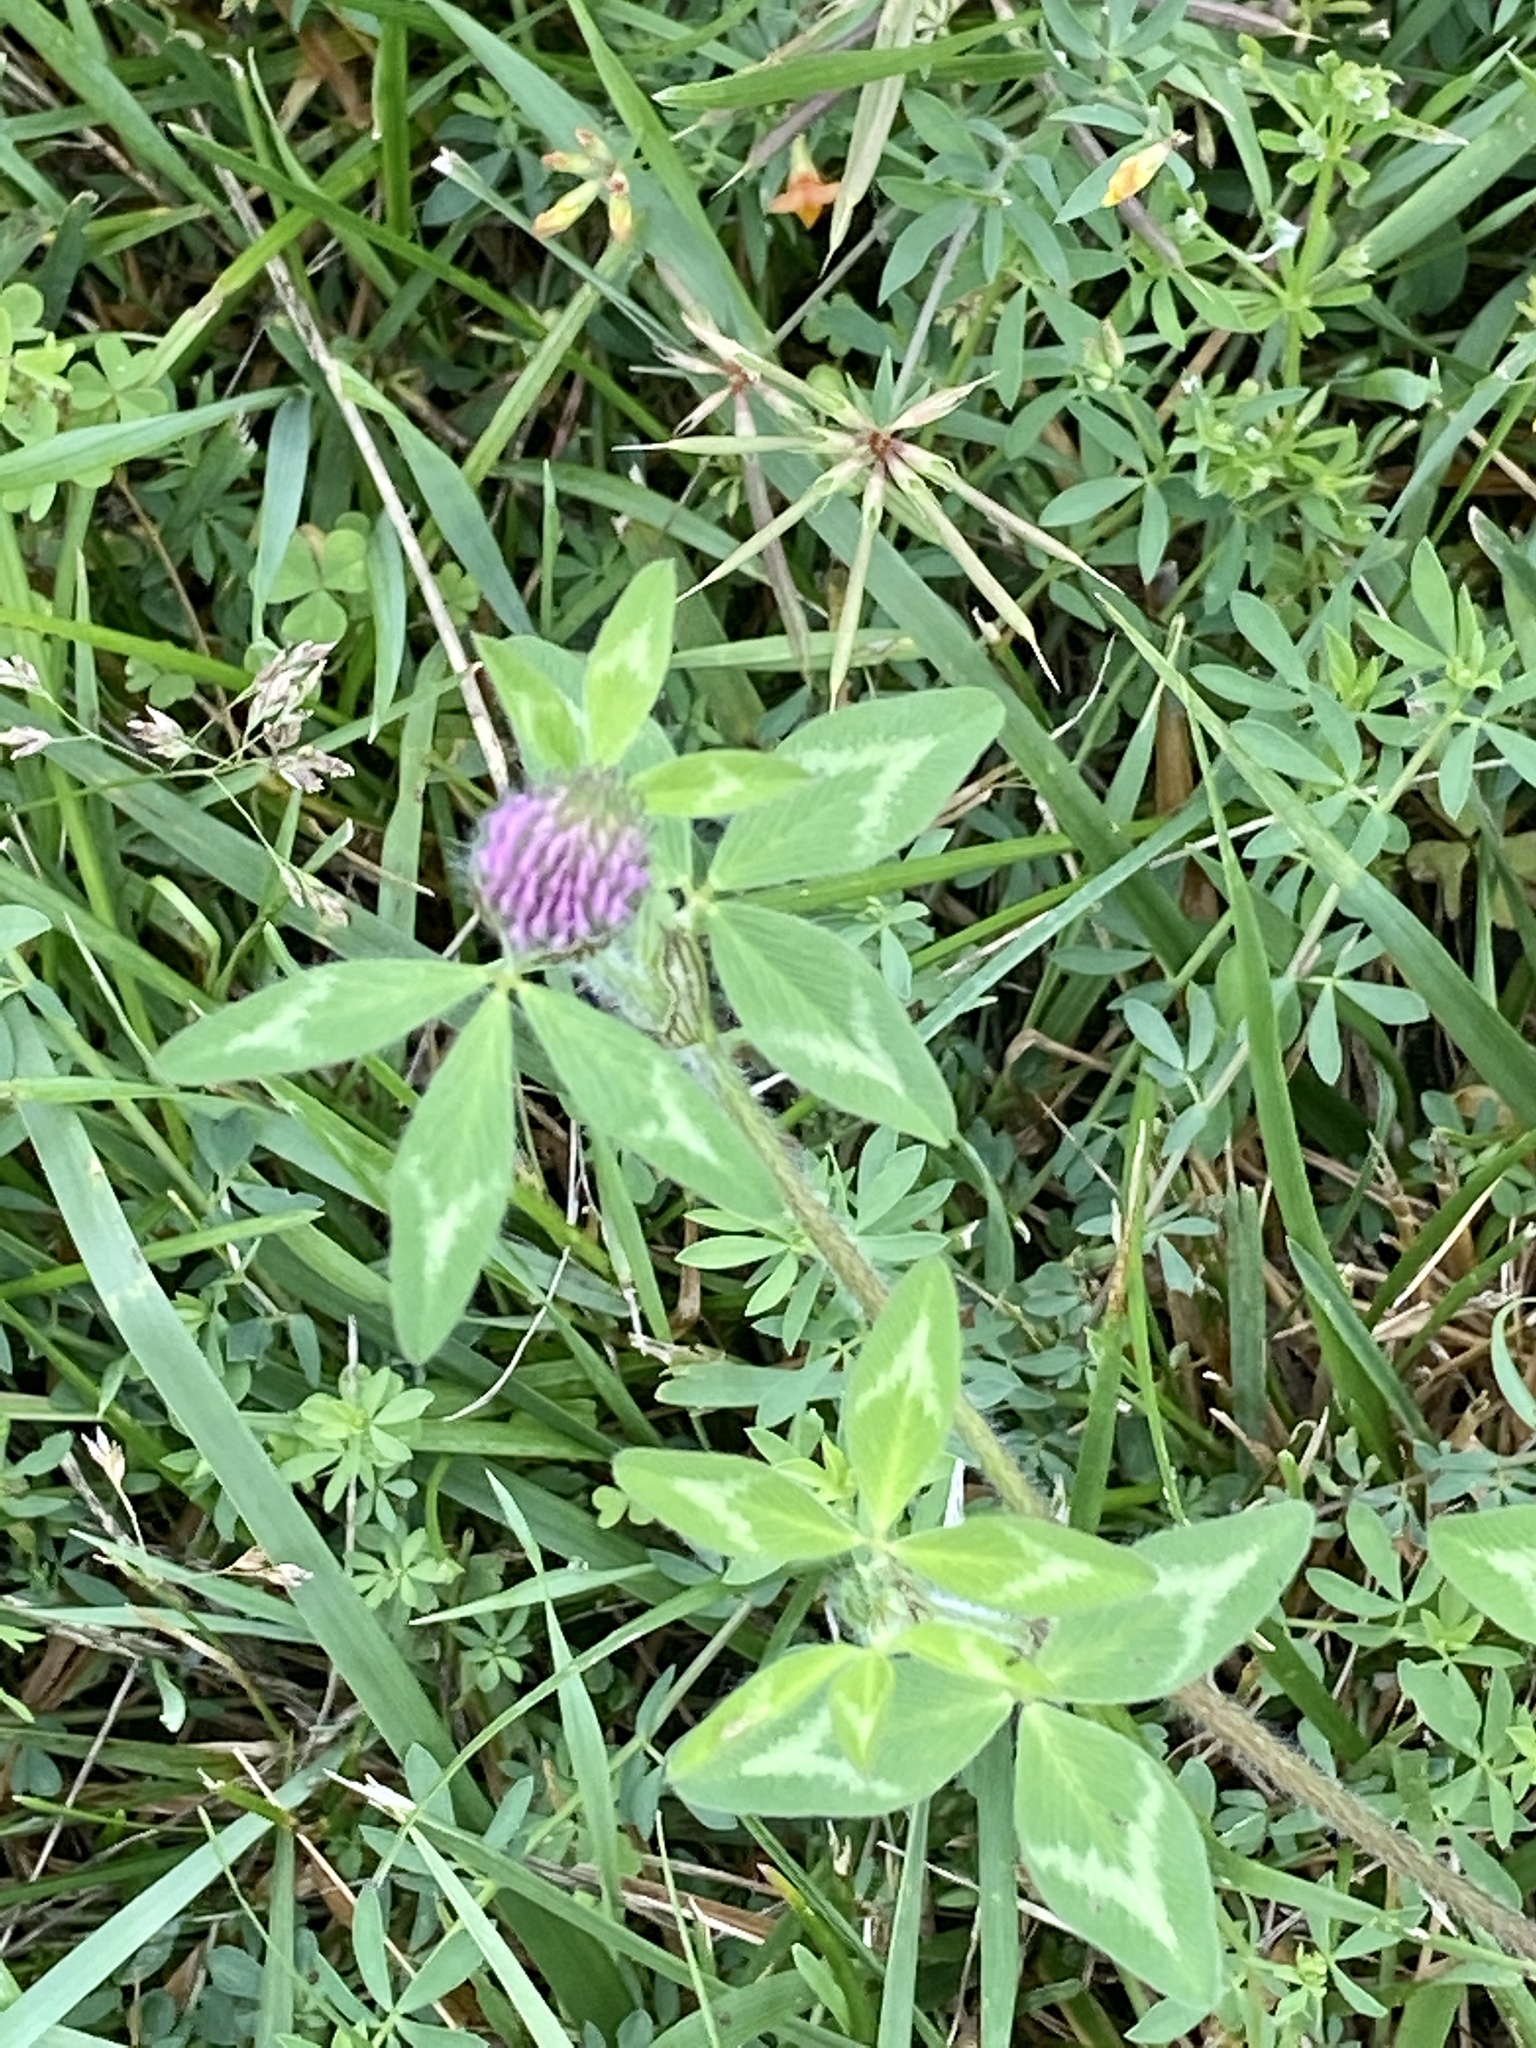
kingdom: Plantae
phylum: Tracheophyta
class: Magnoliopsida
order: Fabales
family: Fabaceae
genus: Trifolium
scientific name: Trifolium pratense
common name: Red clover
